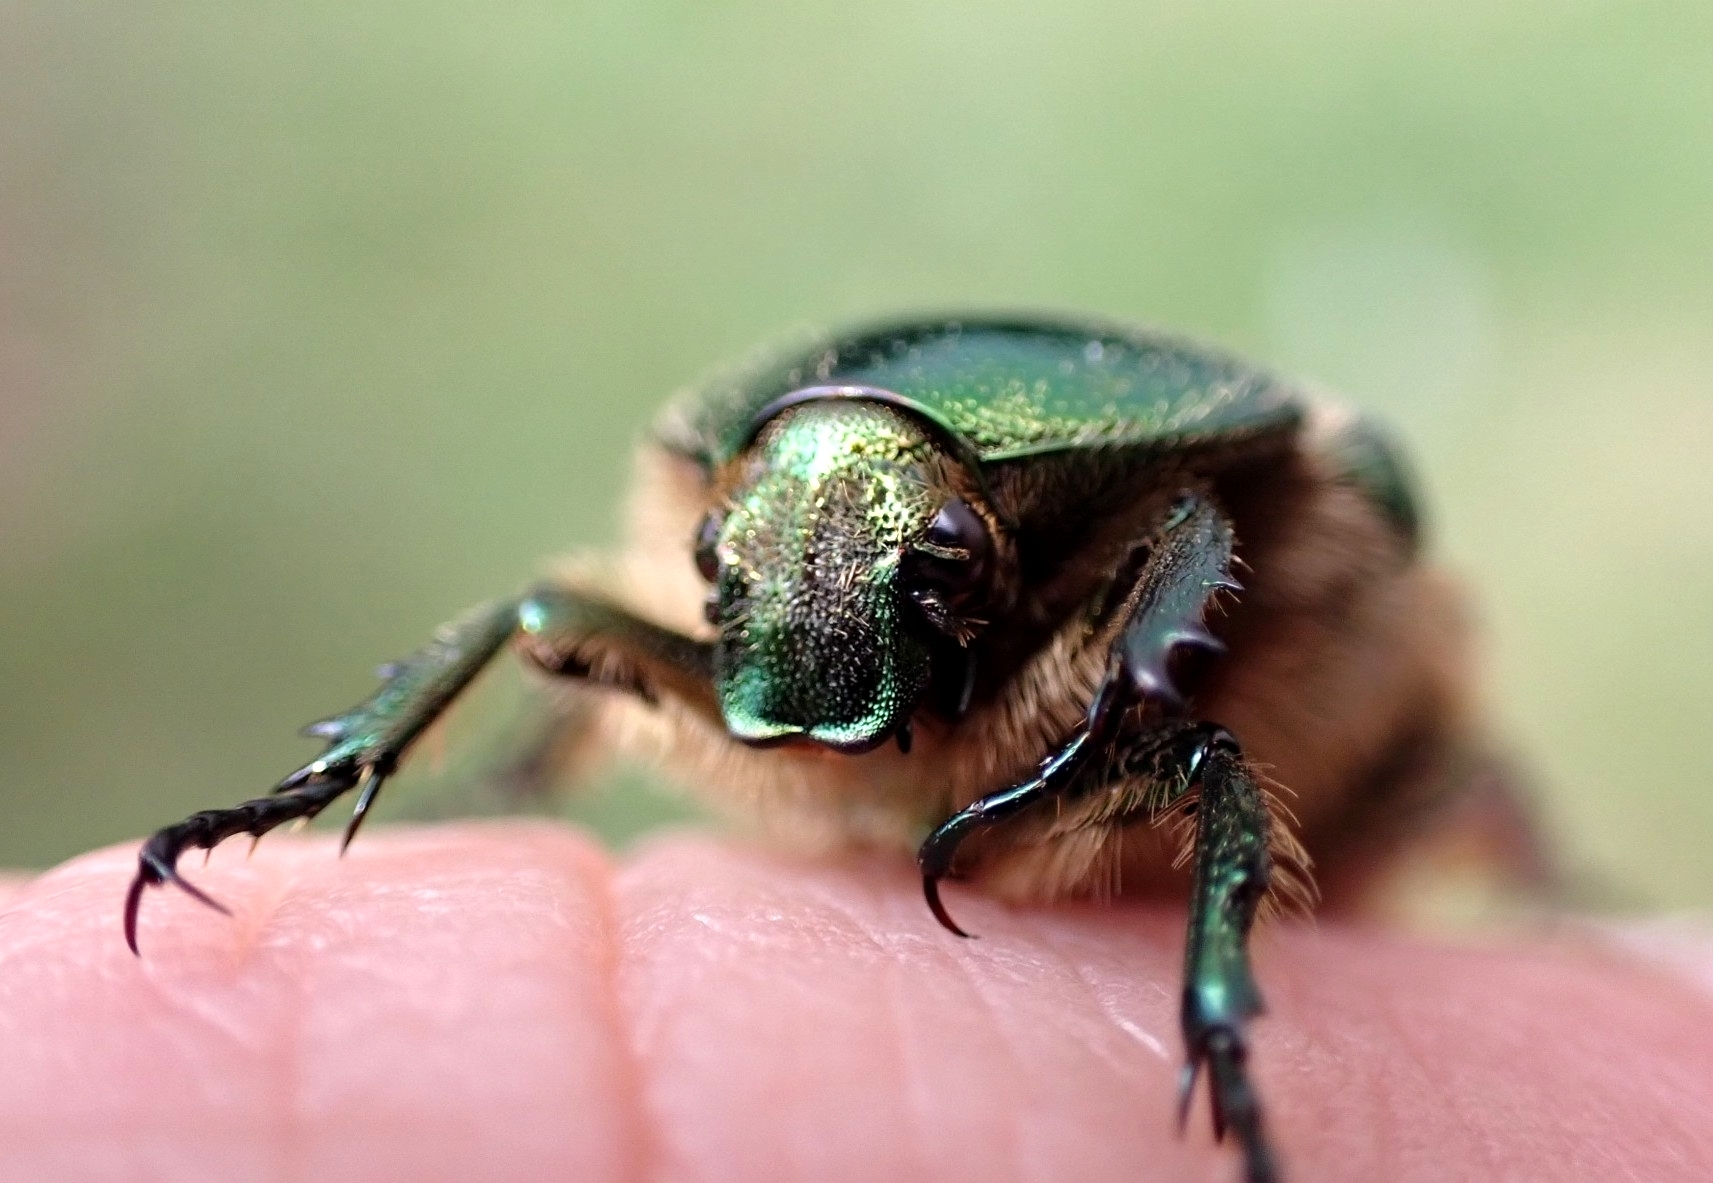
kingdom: Animalia
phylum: Arthropoda
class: Insecta
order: Coleoptera
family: Scarabaeidae
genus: Cetonia
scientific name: Cetonia aurata
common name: Rose chafer
